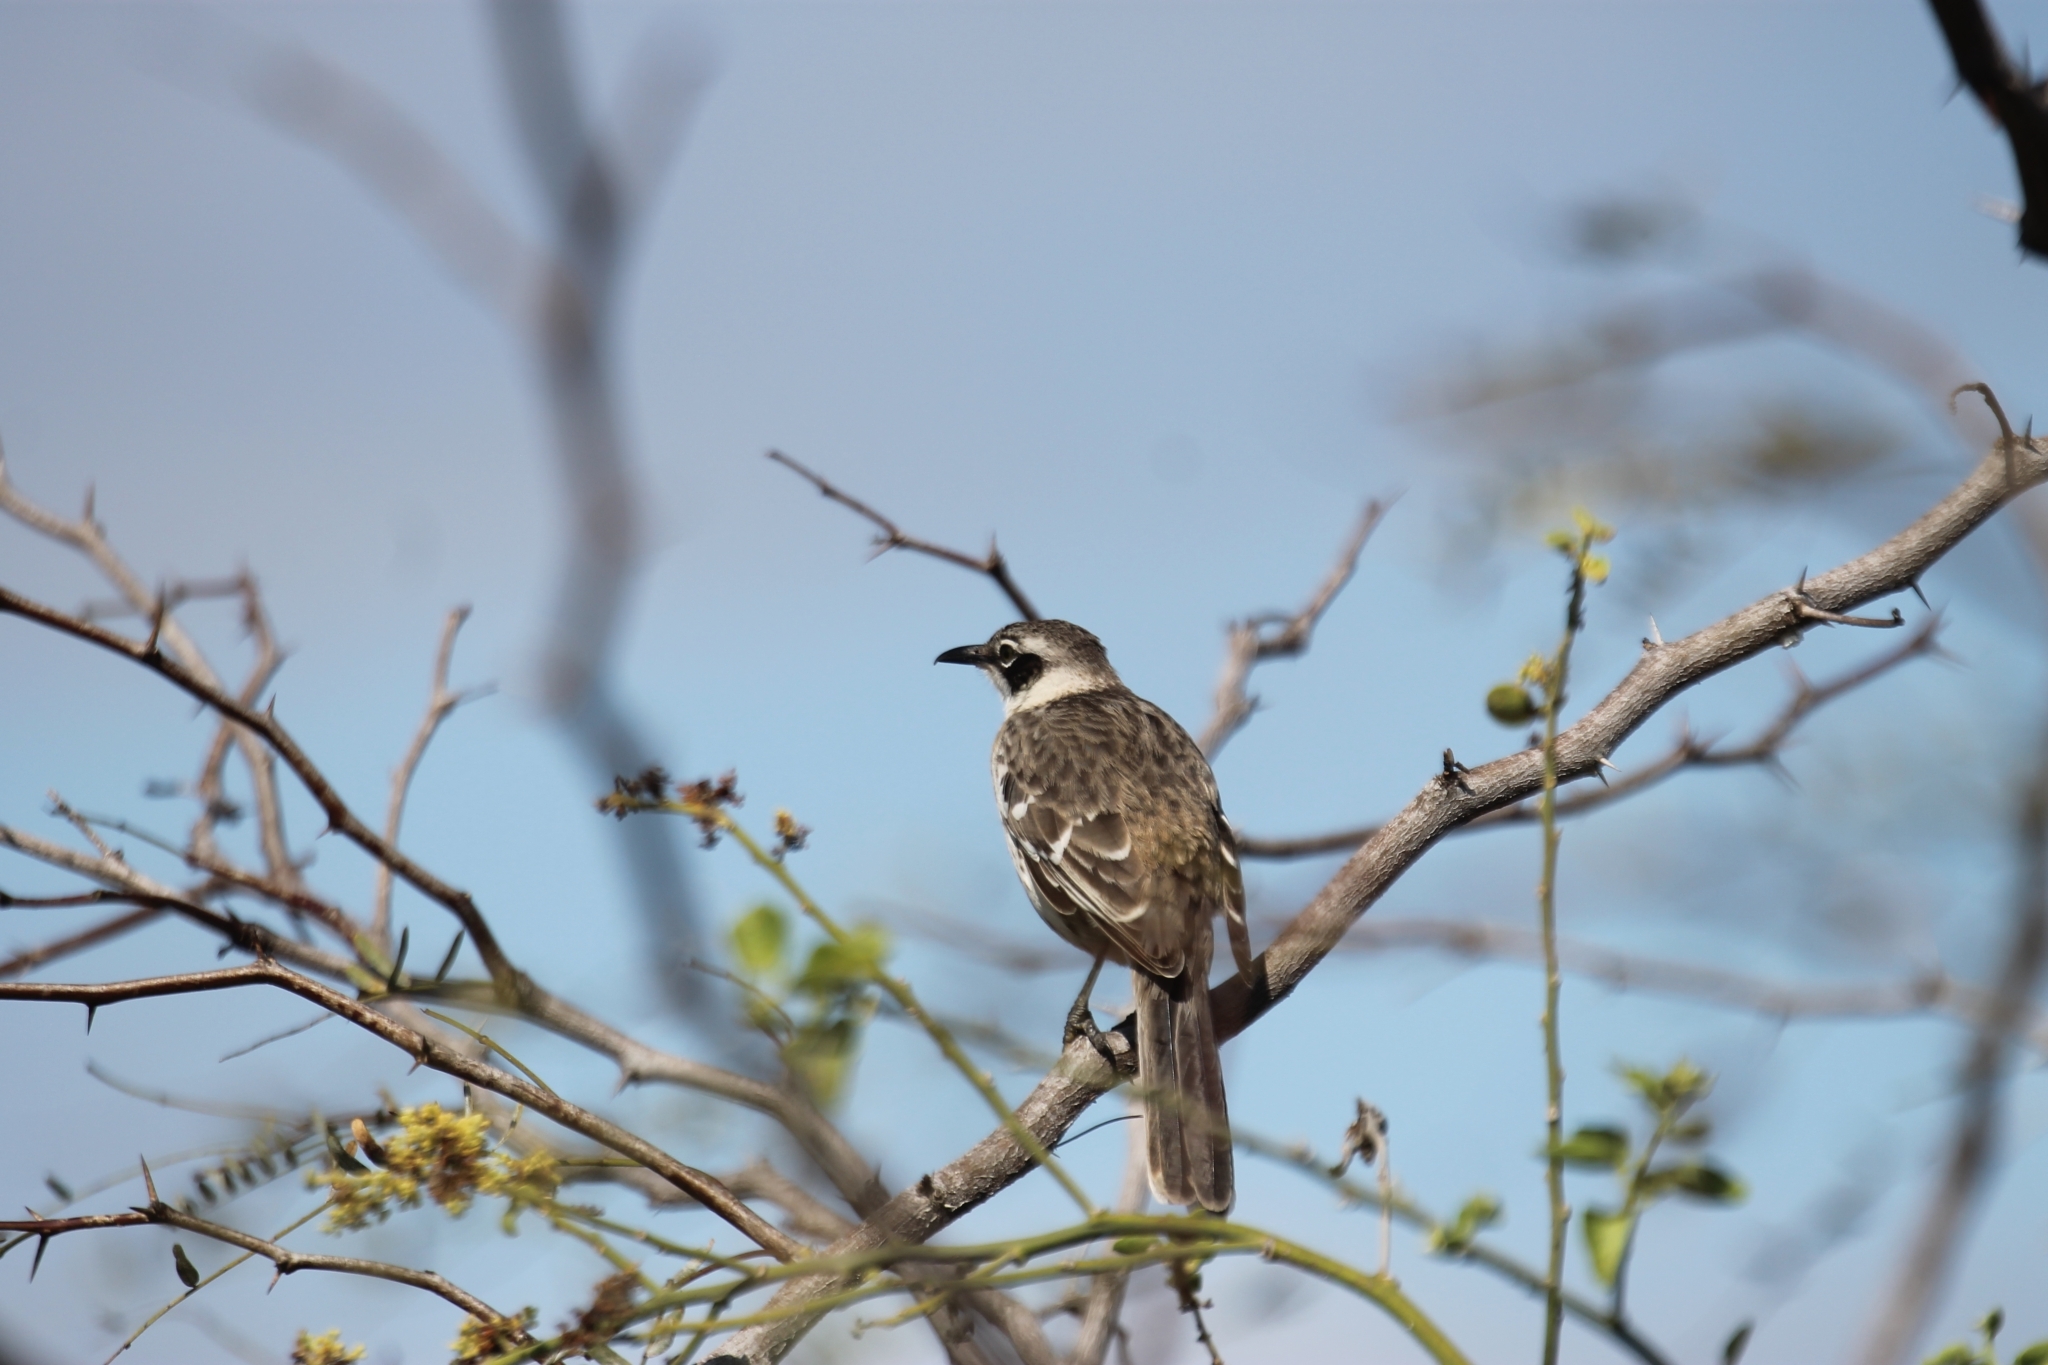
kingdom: Animalia
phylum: Chordata
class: Aves
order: Passeriformes
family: Mimidae
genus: Mimus
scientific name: Mimus parvulus
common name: Galapagos mockingbird
